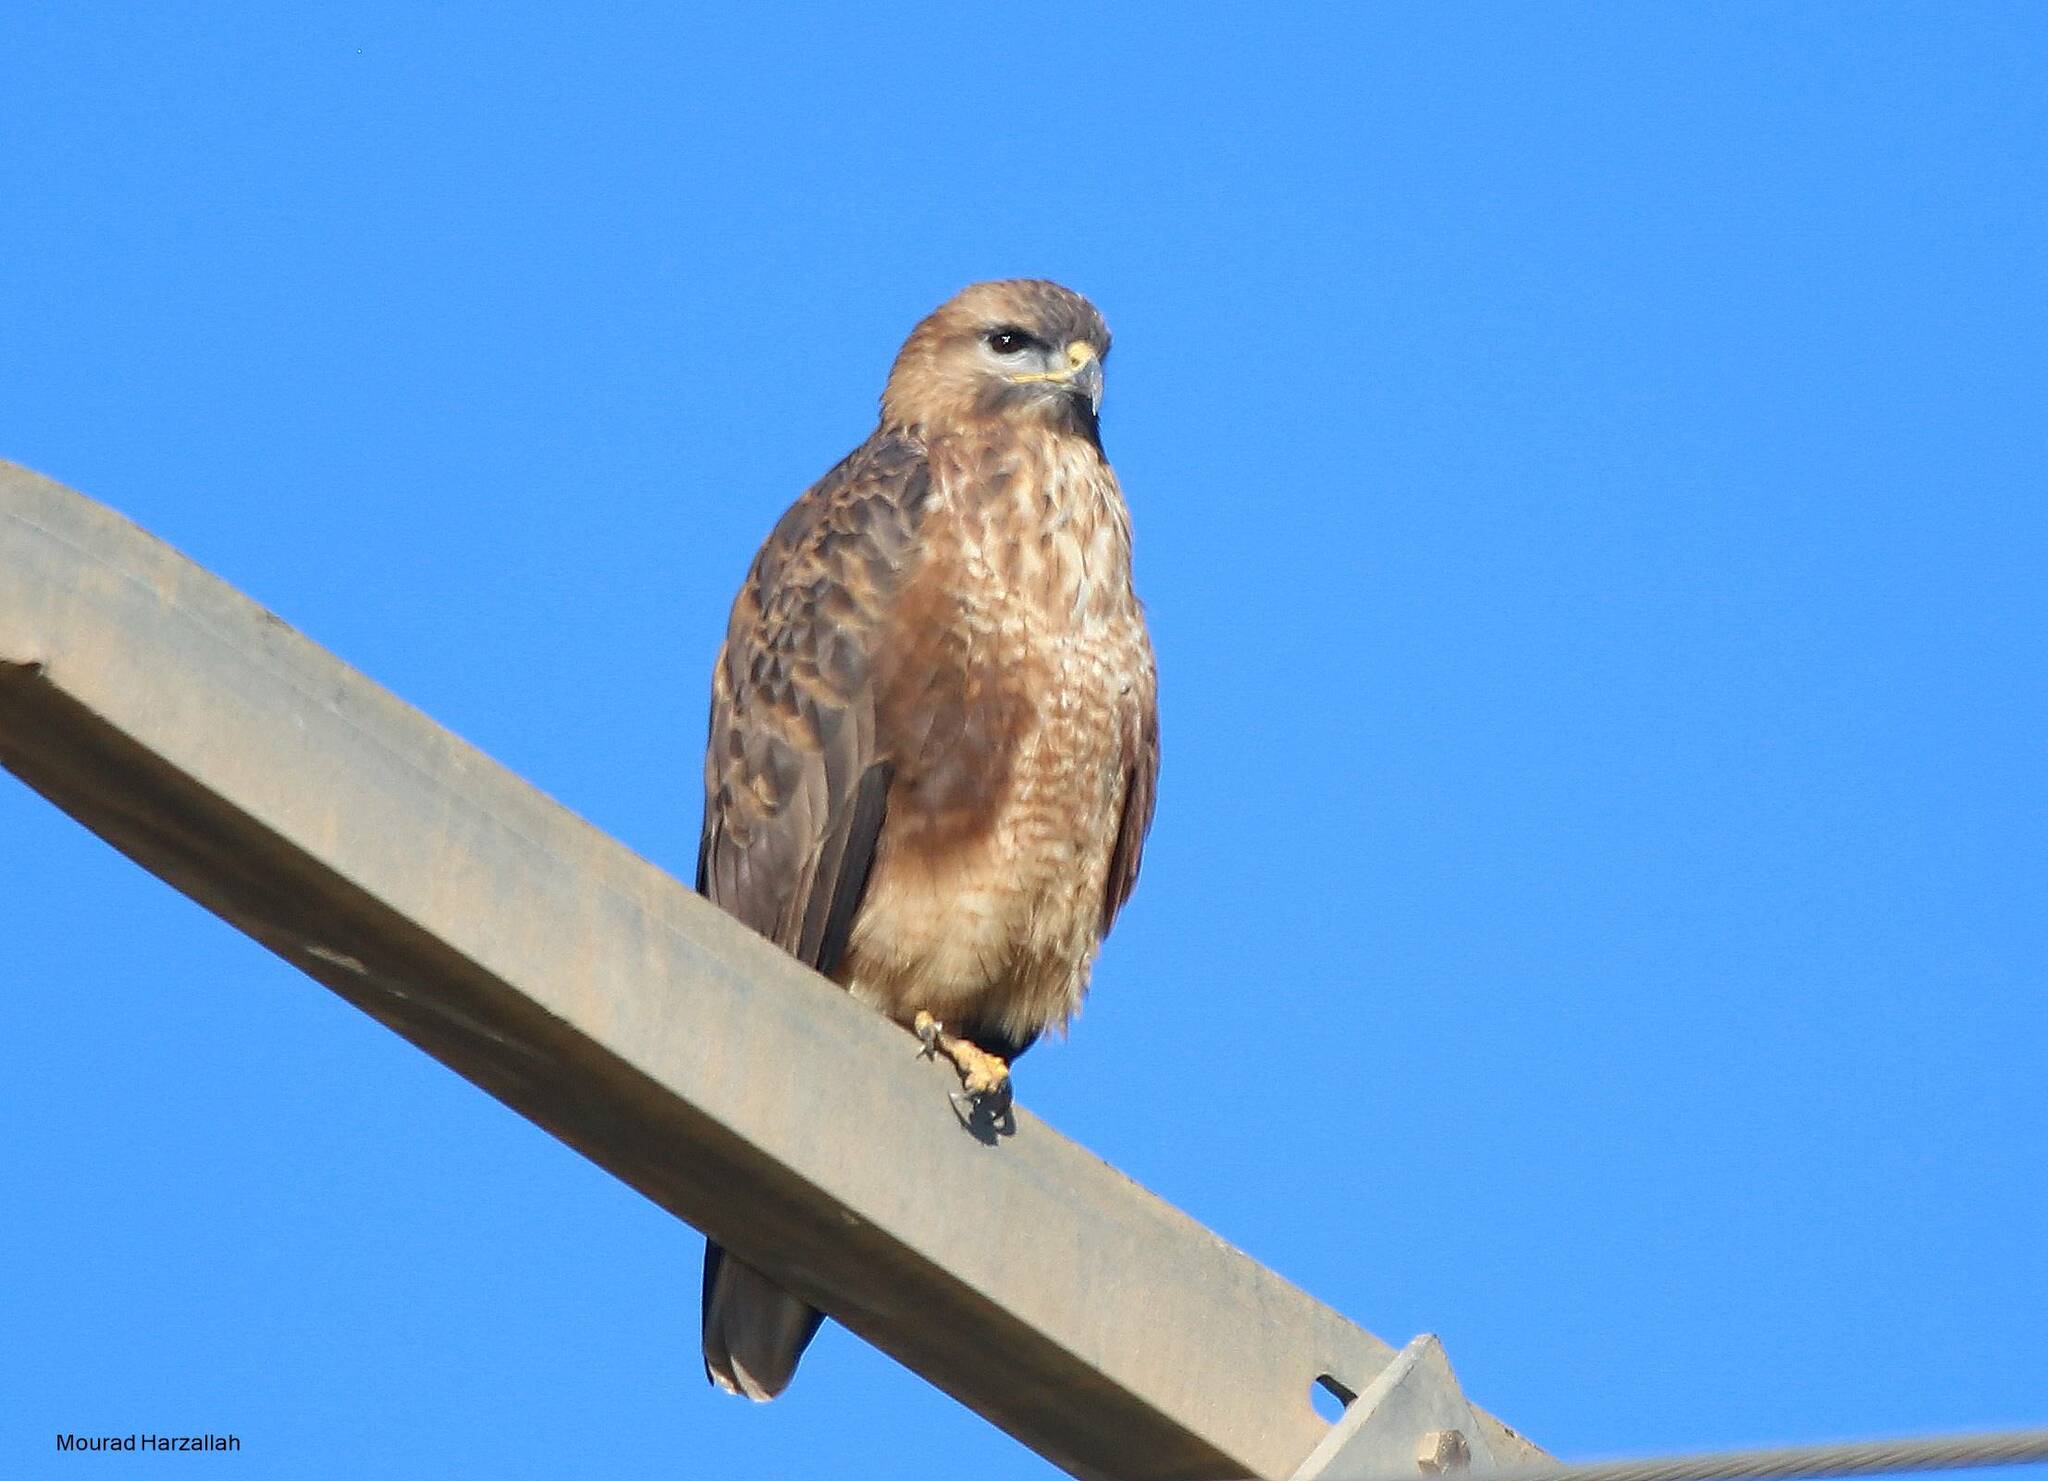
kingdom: Animalia
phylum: Chordata
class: Aves
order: Accipitriformes
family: Accipitridae
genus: Buteo
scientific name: Buteo rufinus
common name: Long-legged buzzard
